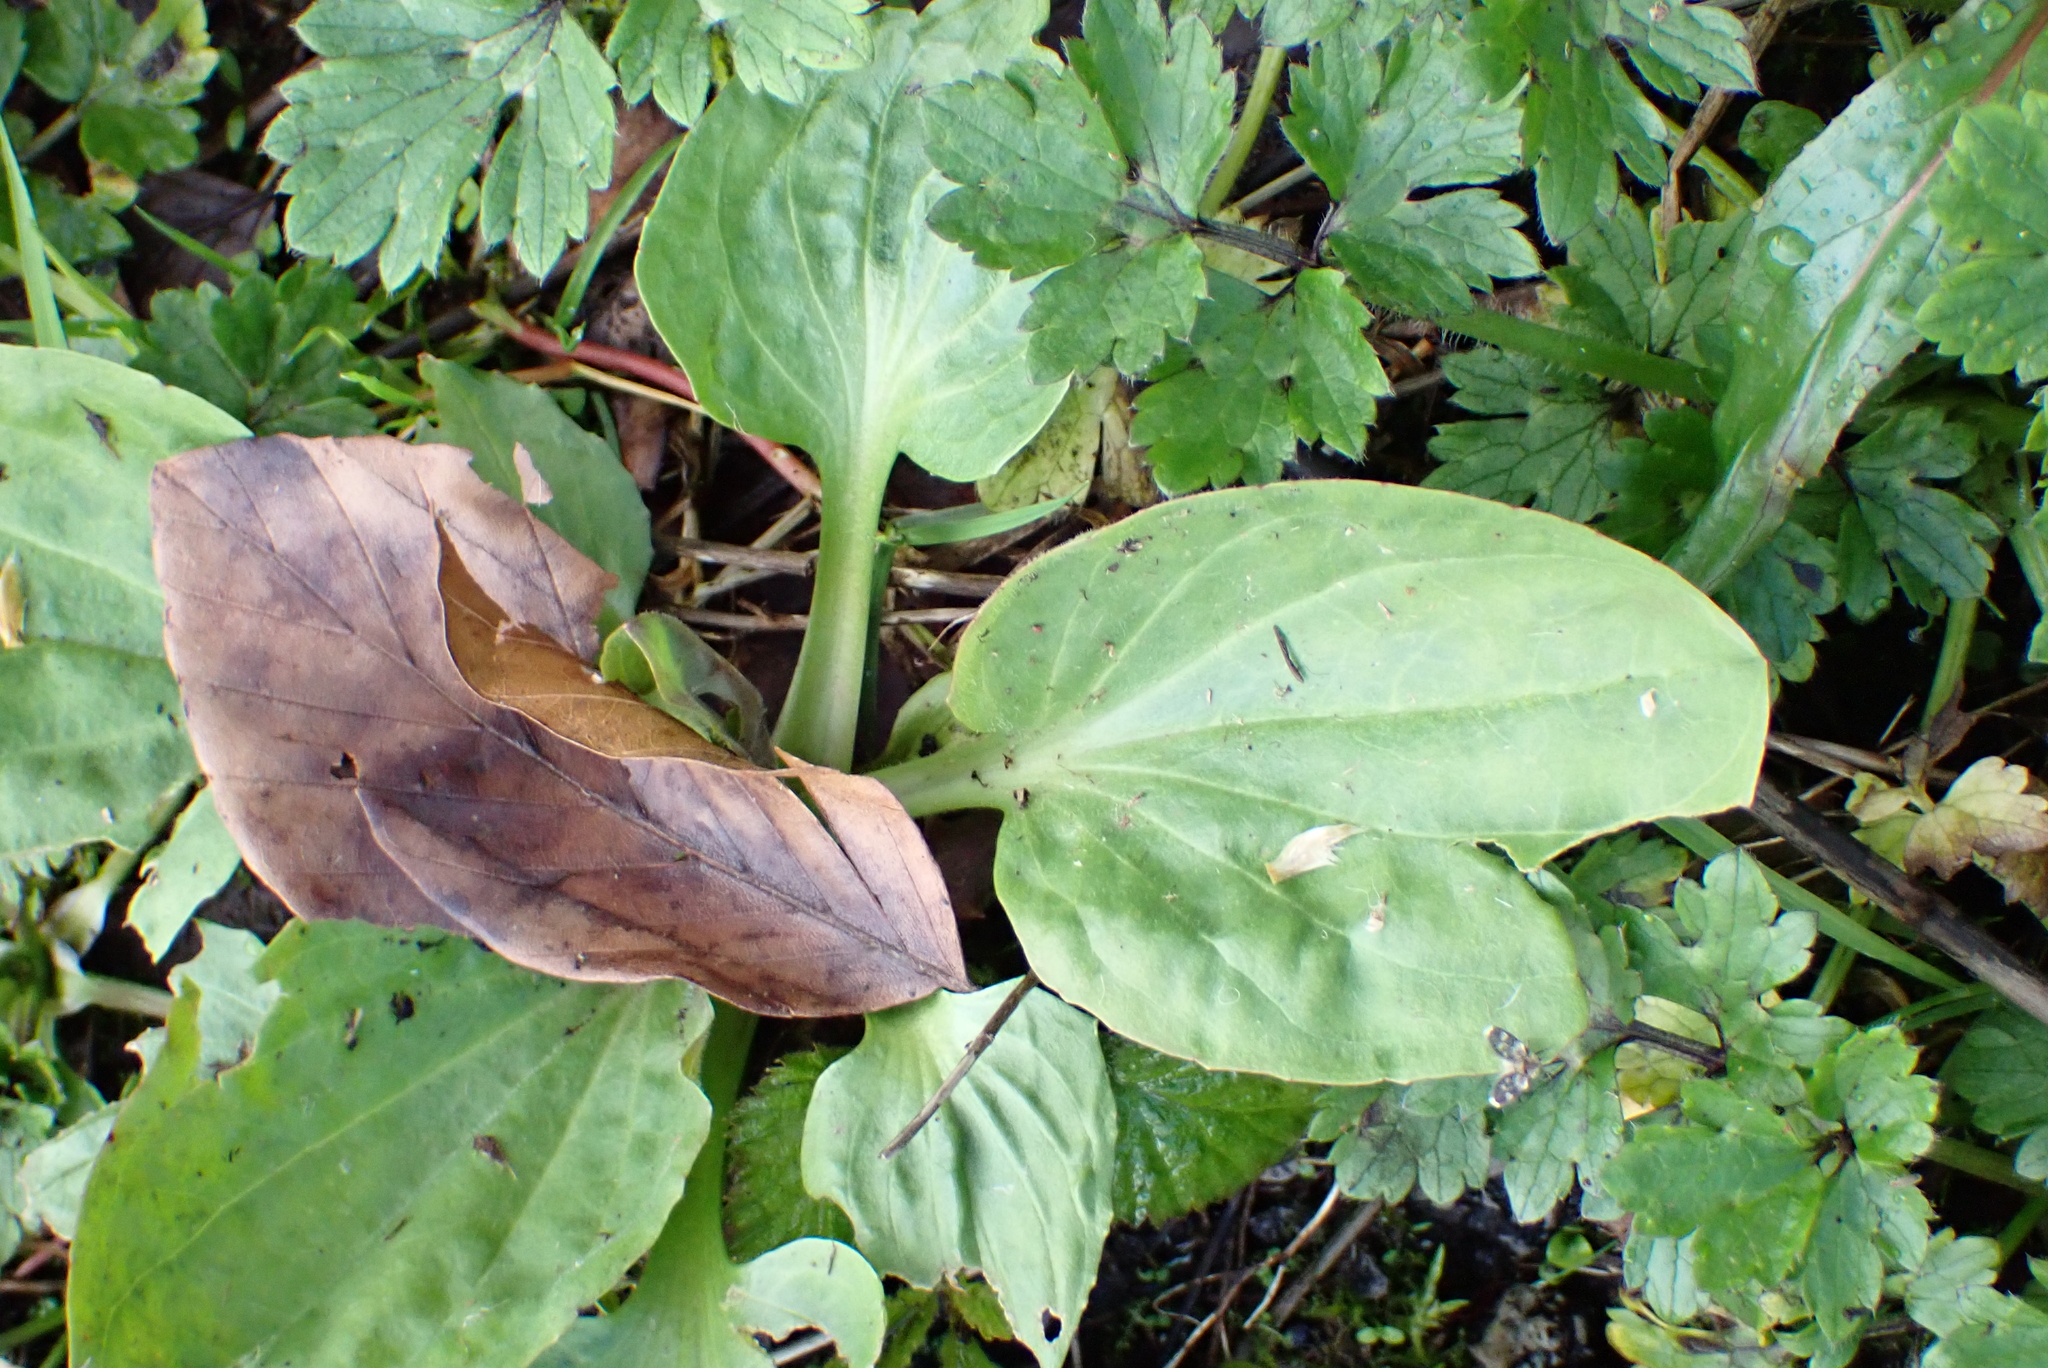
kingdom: Plantae
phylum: Tracheophyta
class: Magnoliopsida
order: Lamiales
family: Plantaginaceae
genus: Plantago
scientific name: Plantago major
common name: Common plantain
